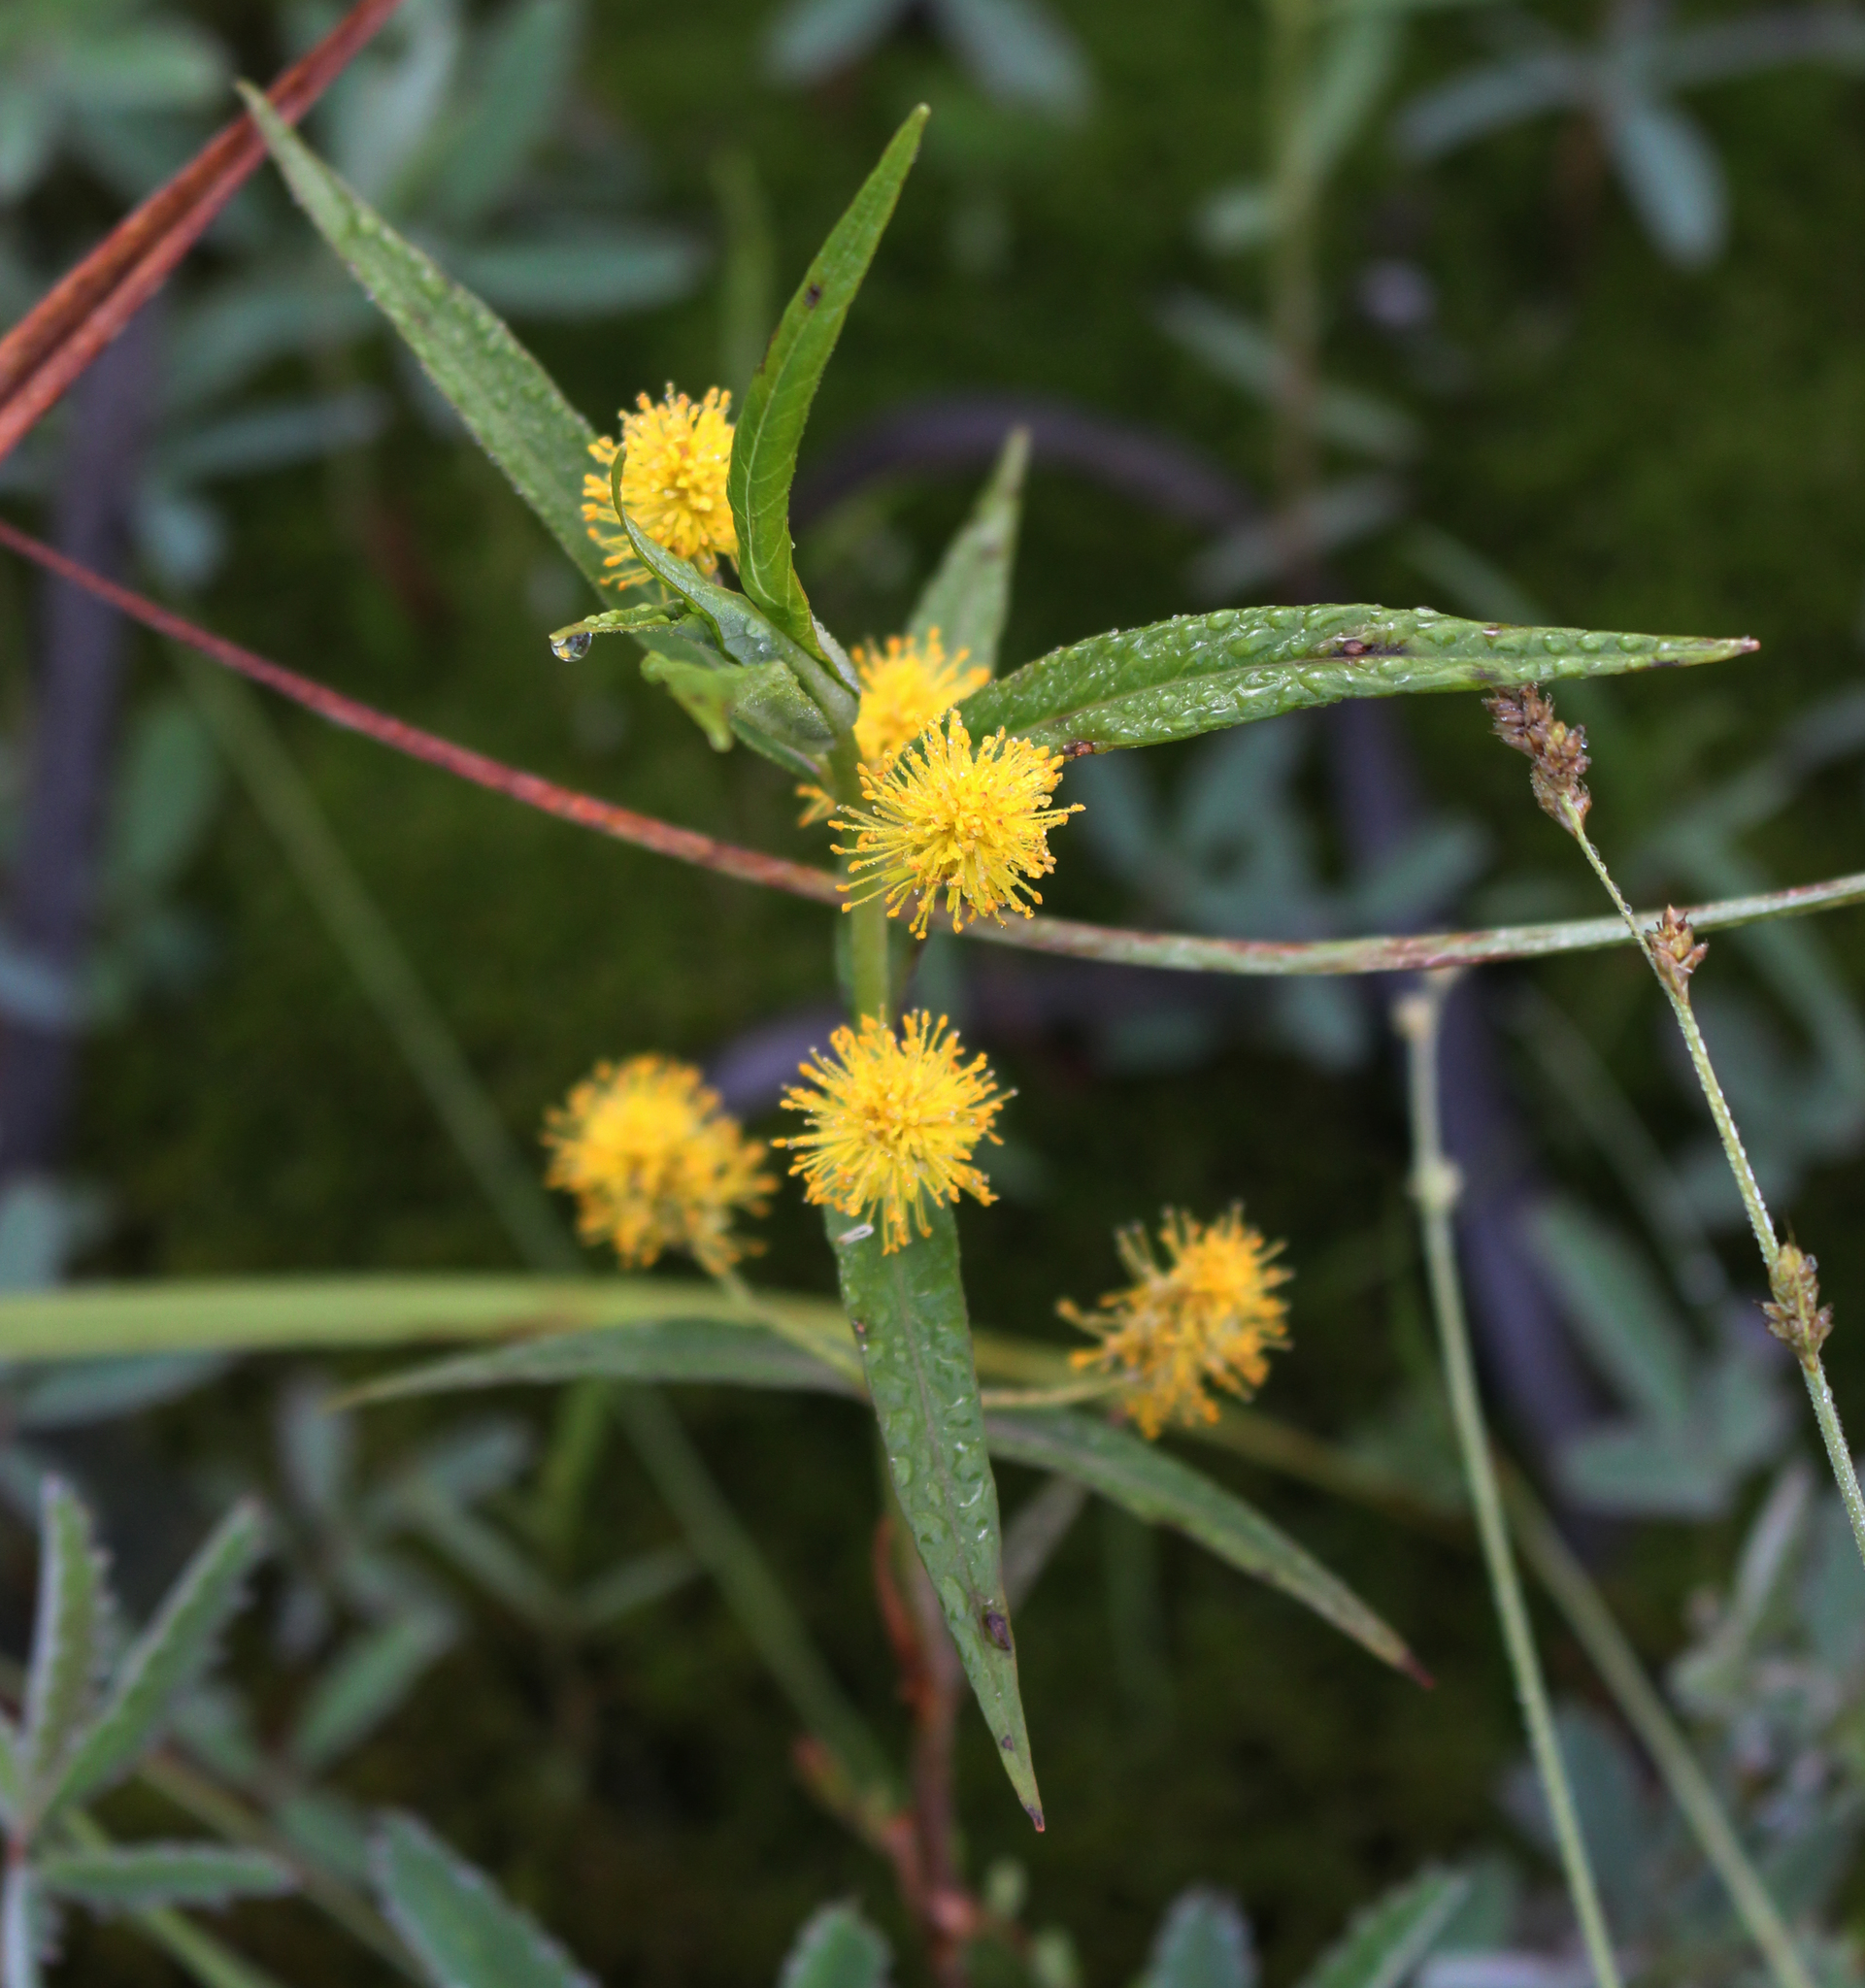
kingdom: Plantae
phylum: Tracheophyta
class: Magnoliopsida
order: Ericales
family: Primulaceae
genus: Lysimachia
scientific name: Lysimachia thyrsiflora
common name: Tufted loosestrife
